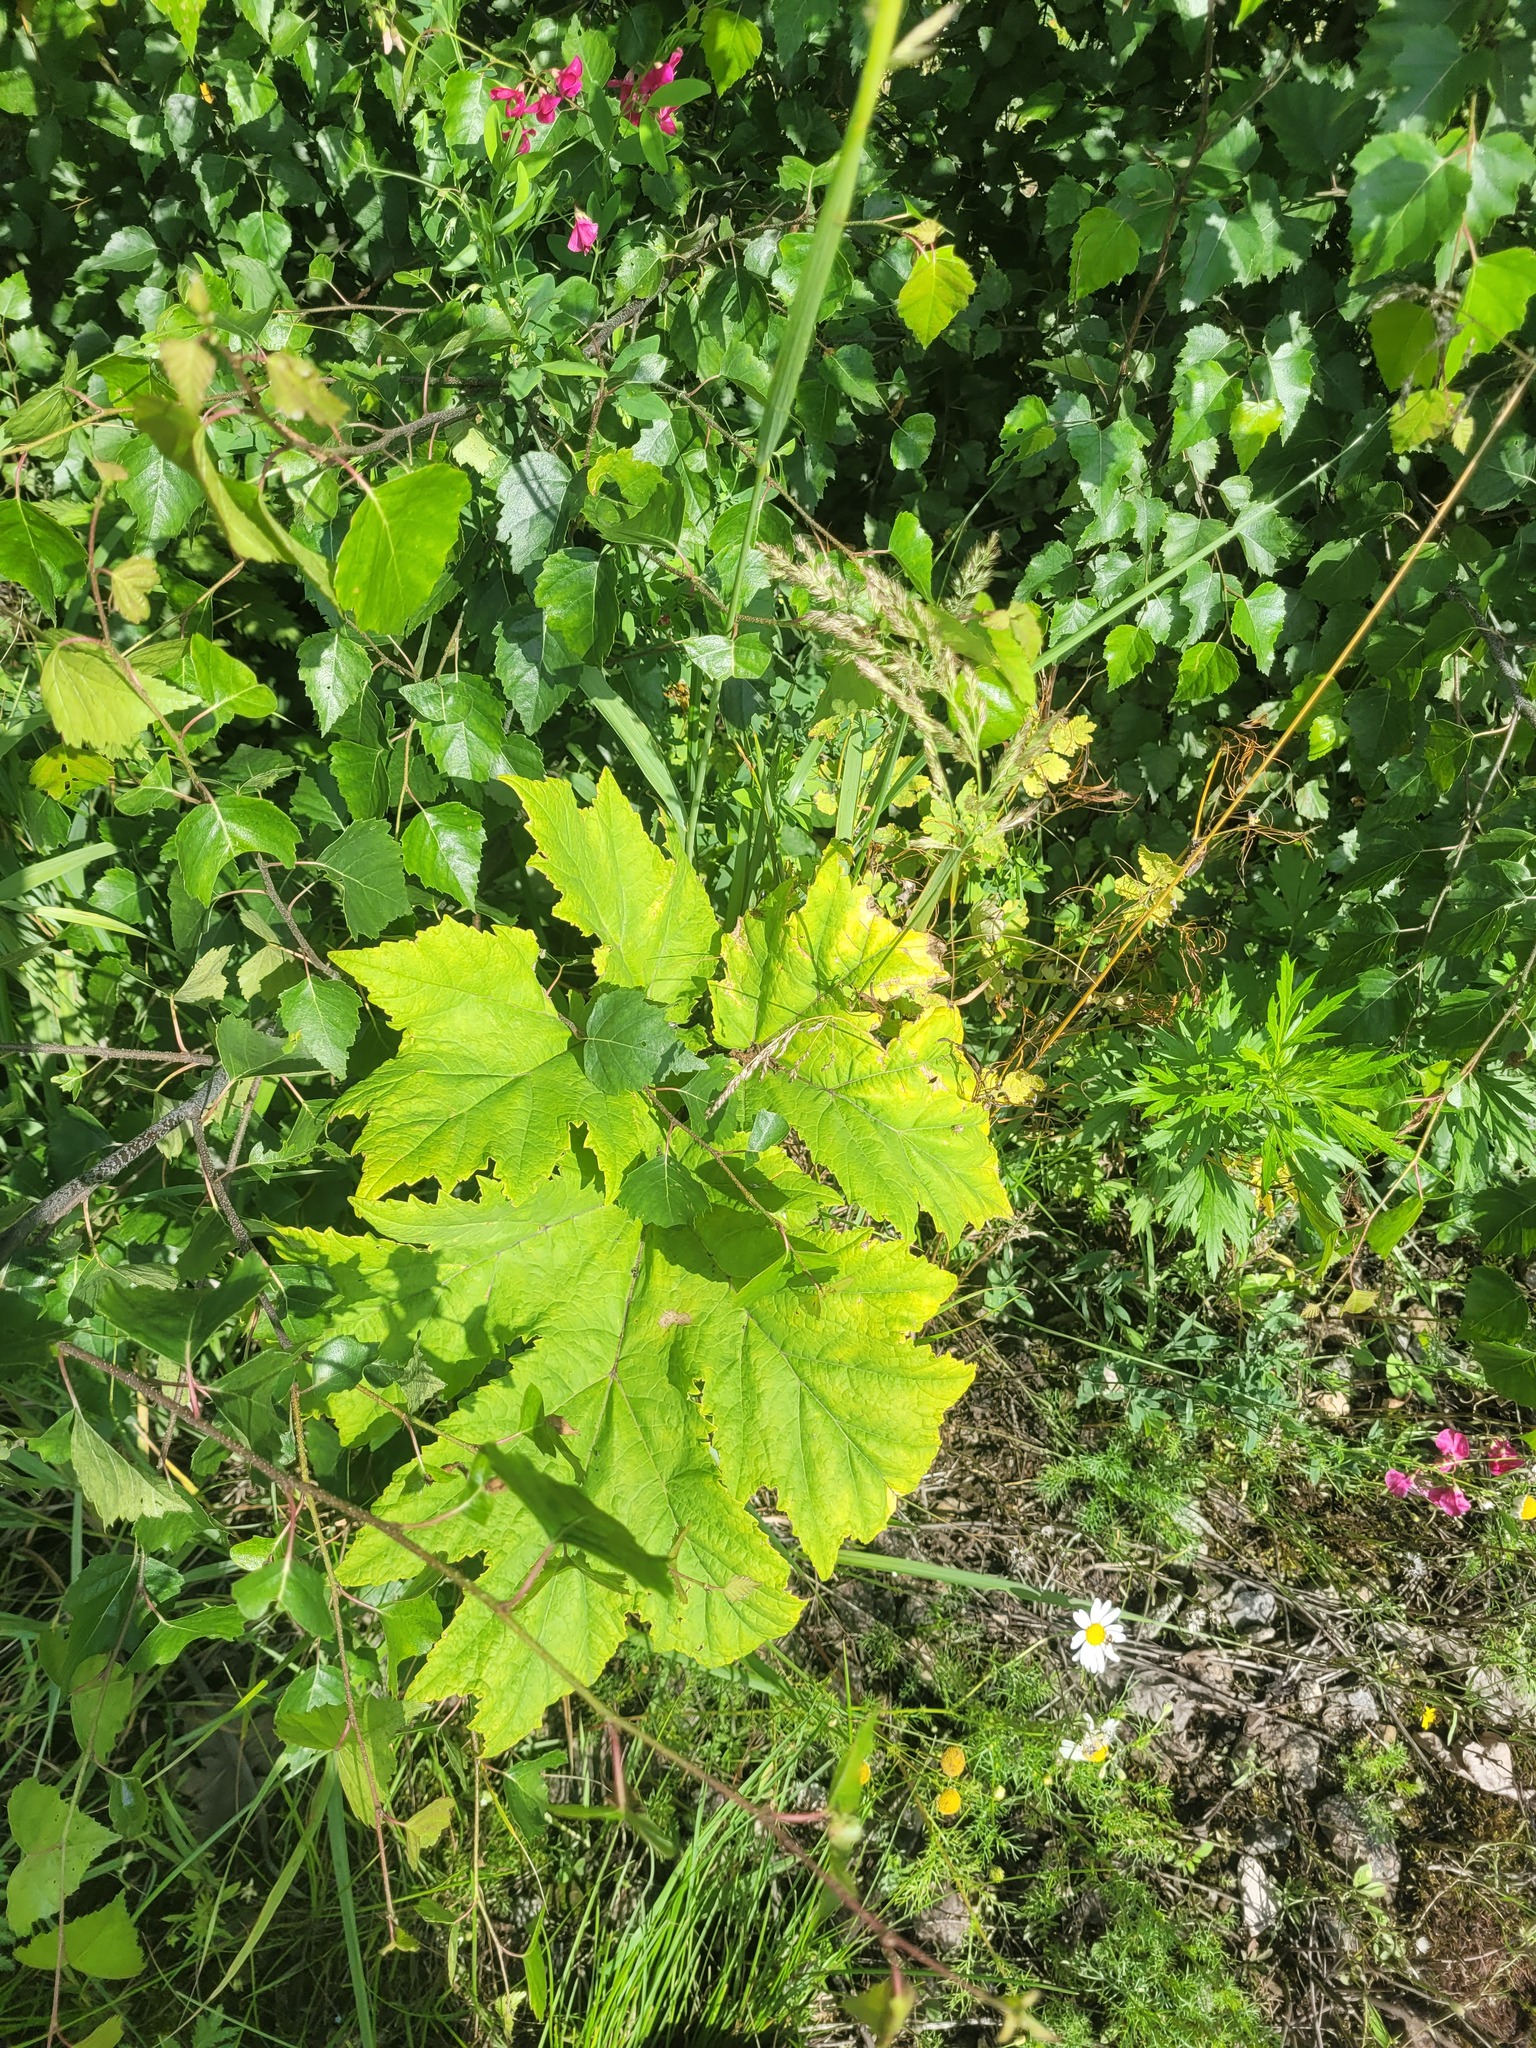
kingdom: Plantae
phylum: Tracheophyta
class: Magnoliopsida
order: Apiales
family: Apiaceae
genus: Heracleum
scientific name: Heracleum sosnowskyi
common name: Sosnowsky's hogweed
